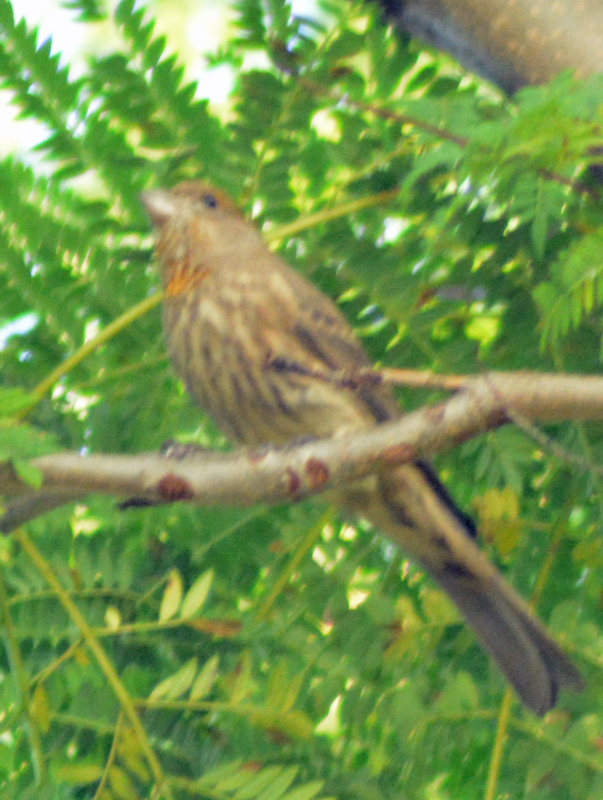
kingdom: Animalia
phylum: Chordata
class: Aves
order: Passeriformes
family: Fringillidae
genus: Haemorhous
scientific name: Haemorhous mexicanus
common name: House finch
